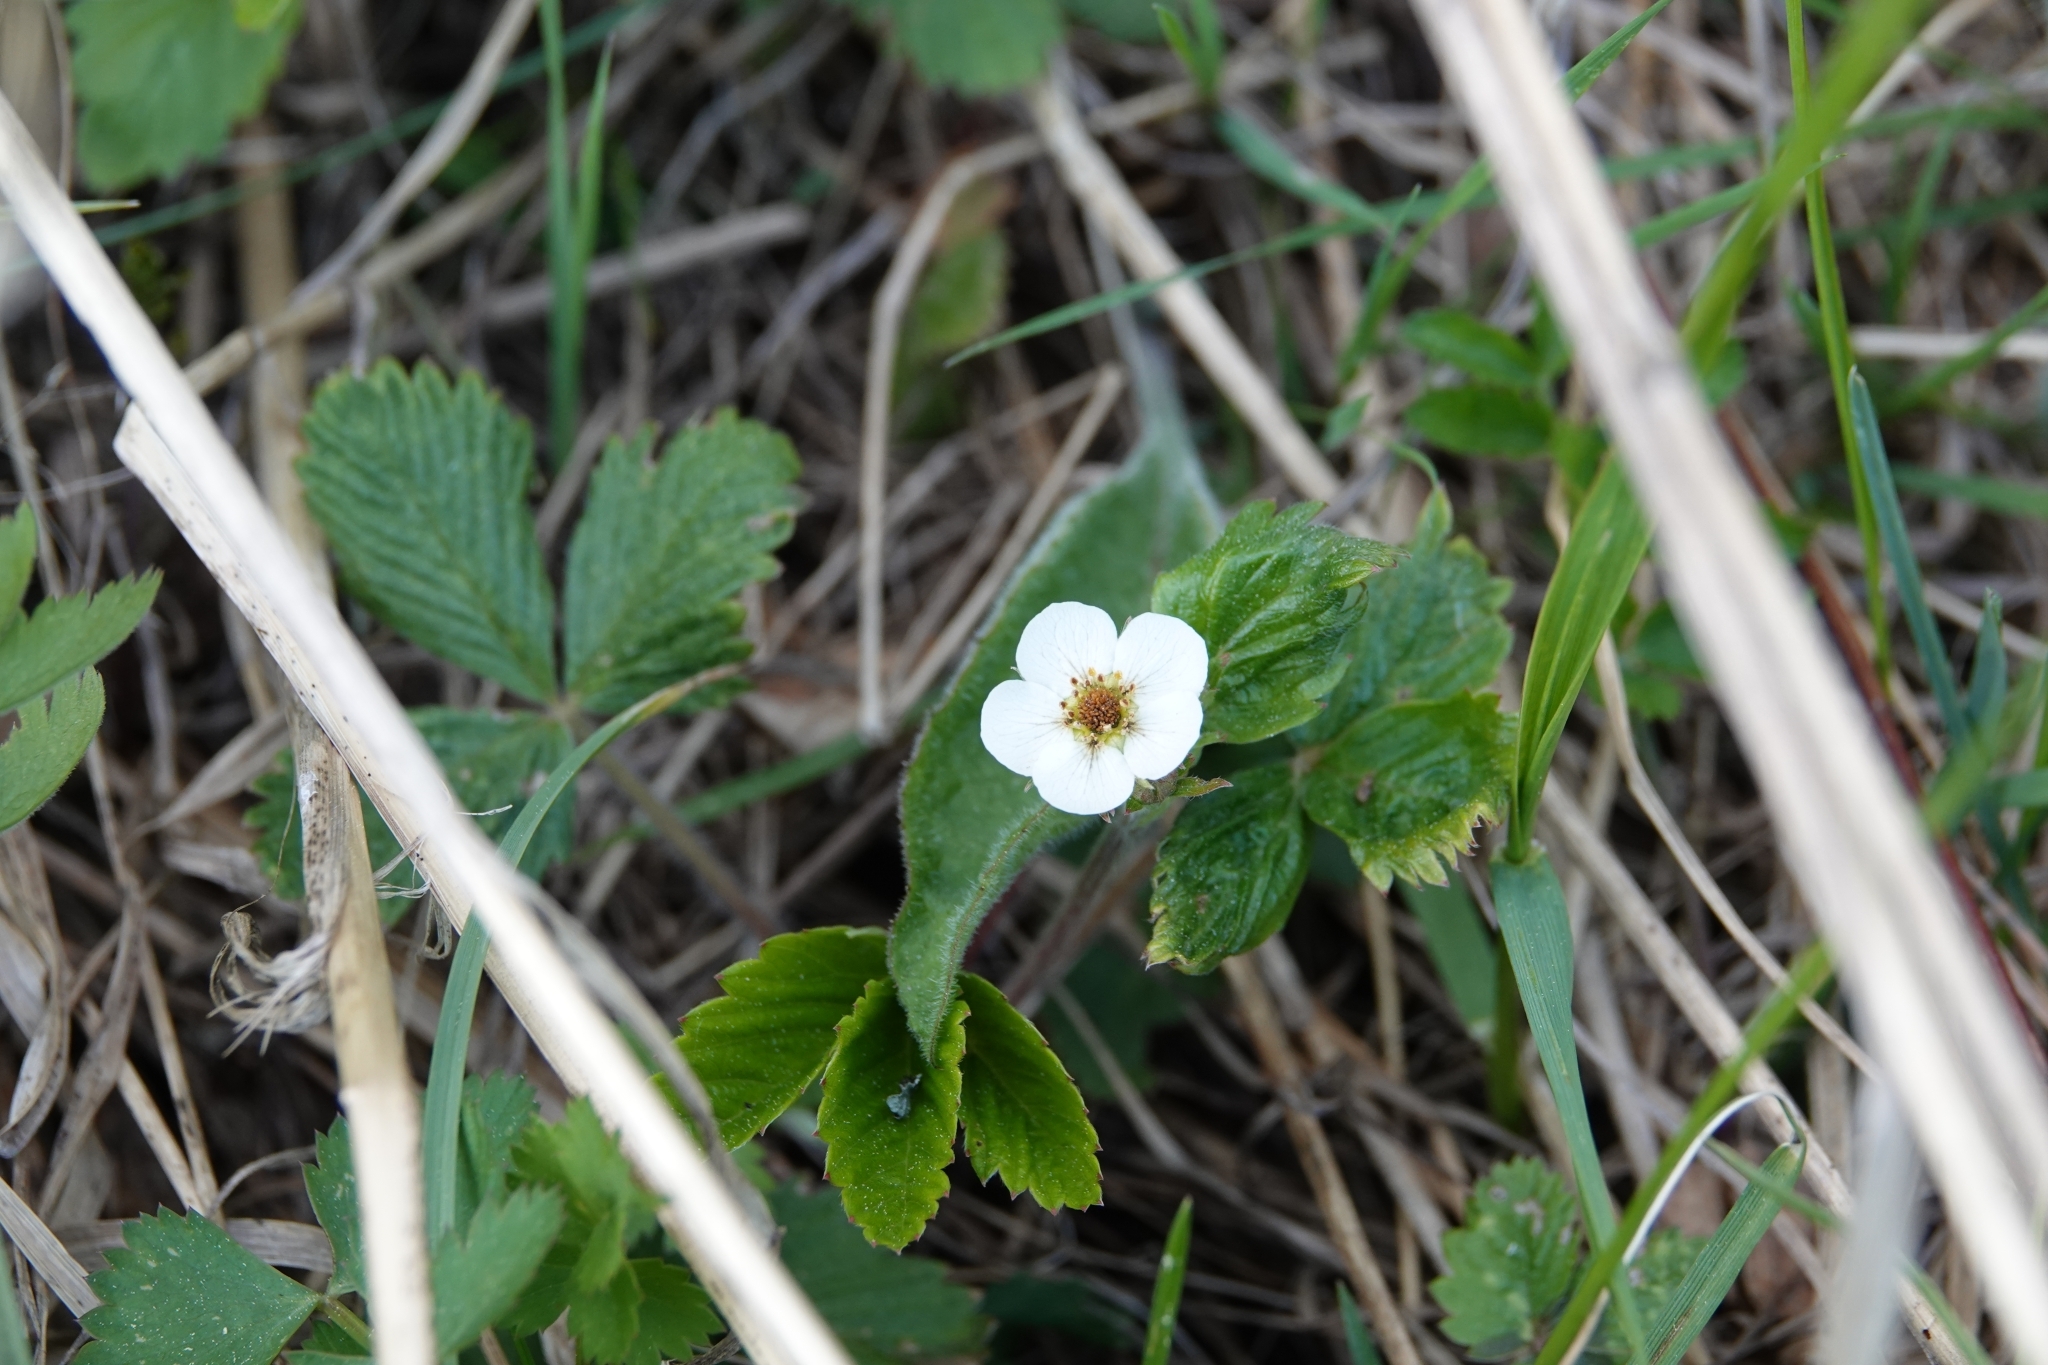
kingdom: Plantae
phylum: Tracheophyta
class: Magnoliopsida
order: Rosales
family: Rosaceae
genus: Fragaria
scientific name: Fragaria vesca
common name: Wild strawberry
